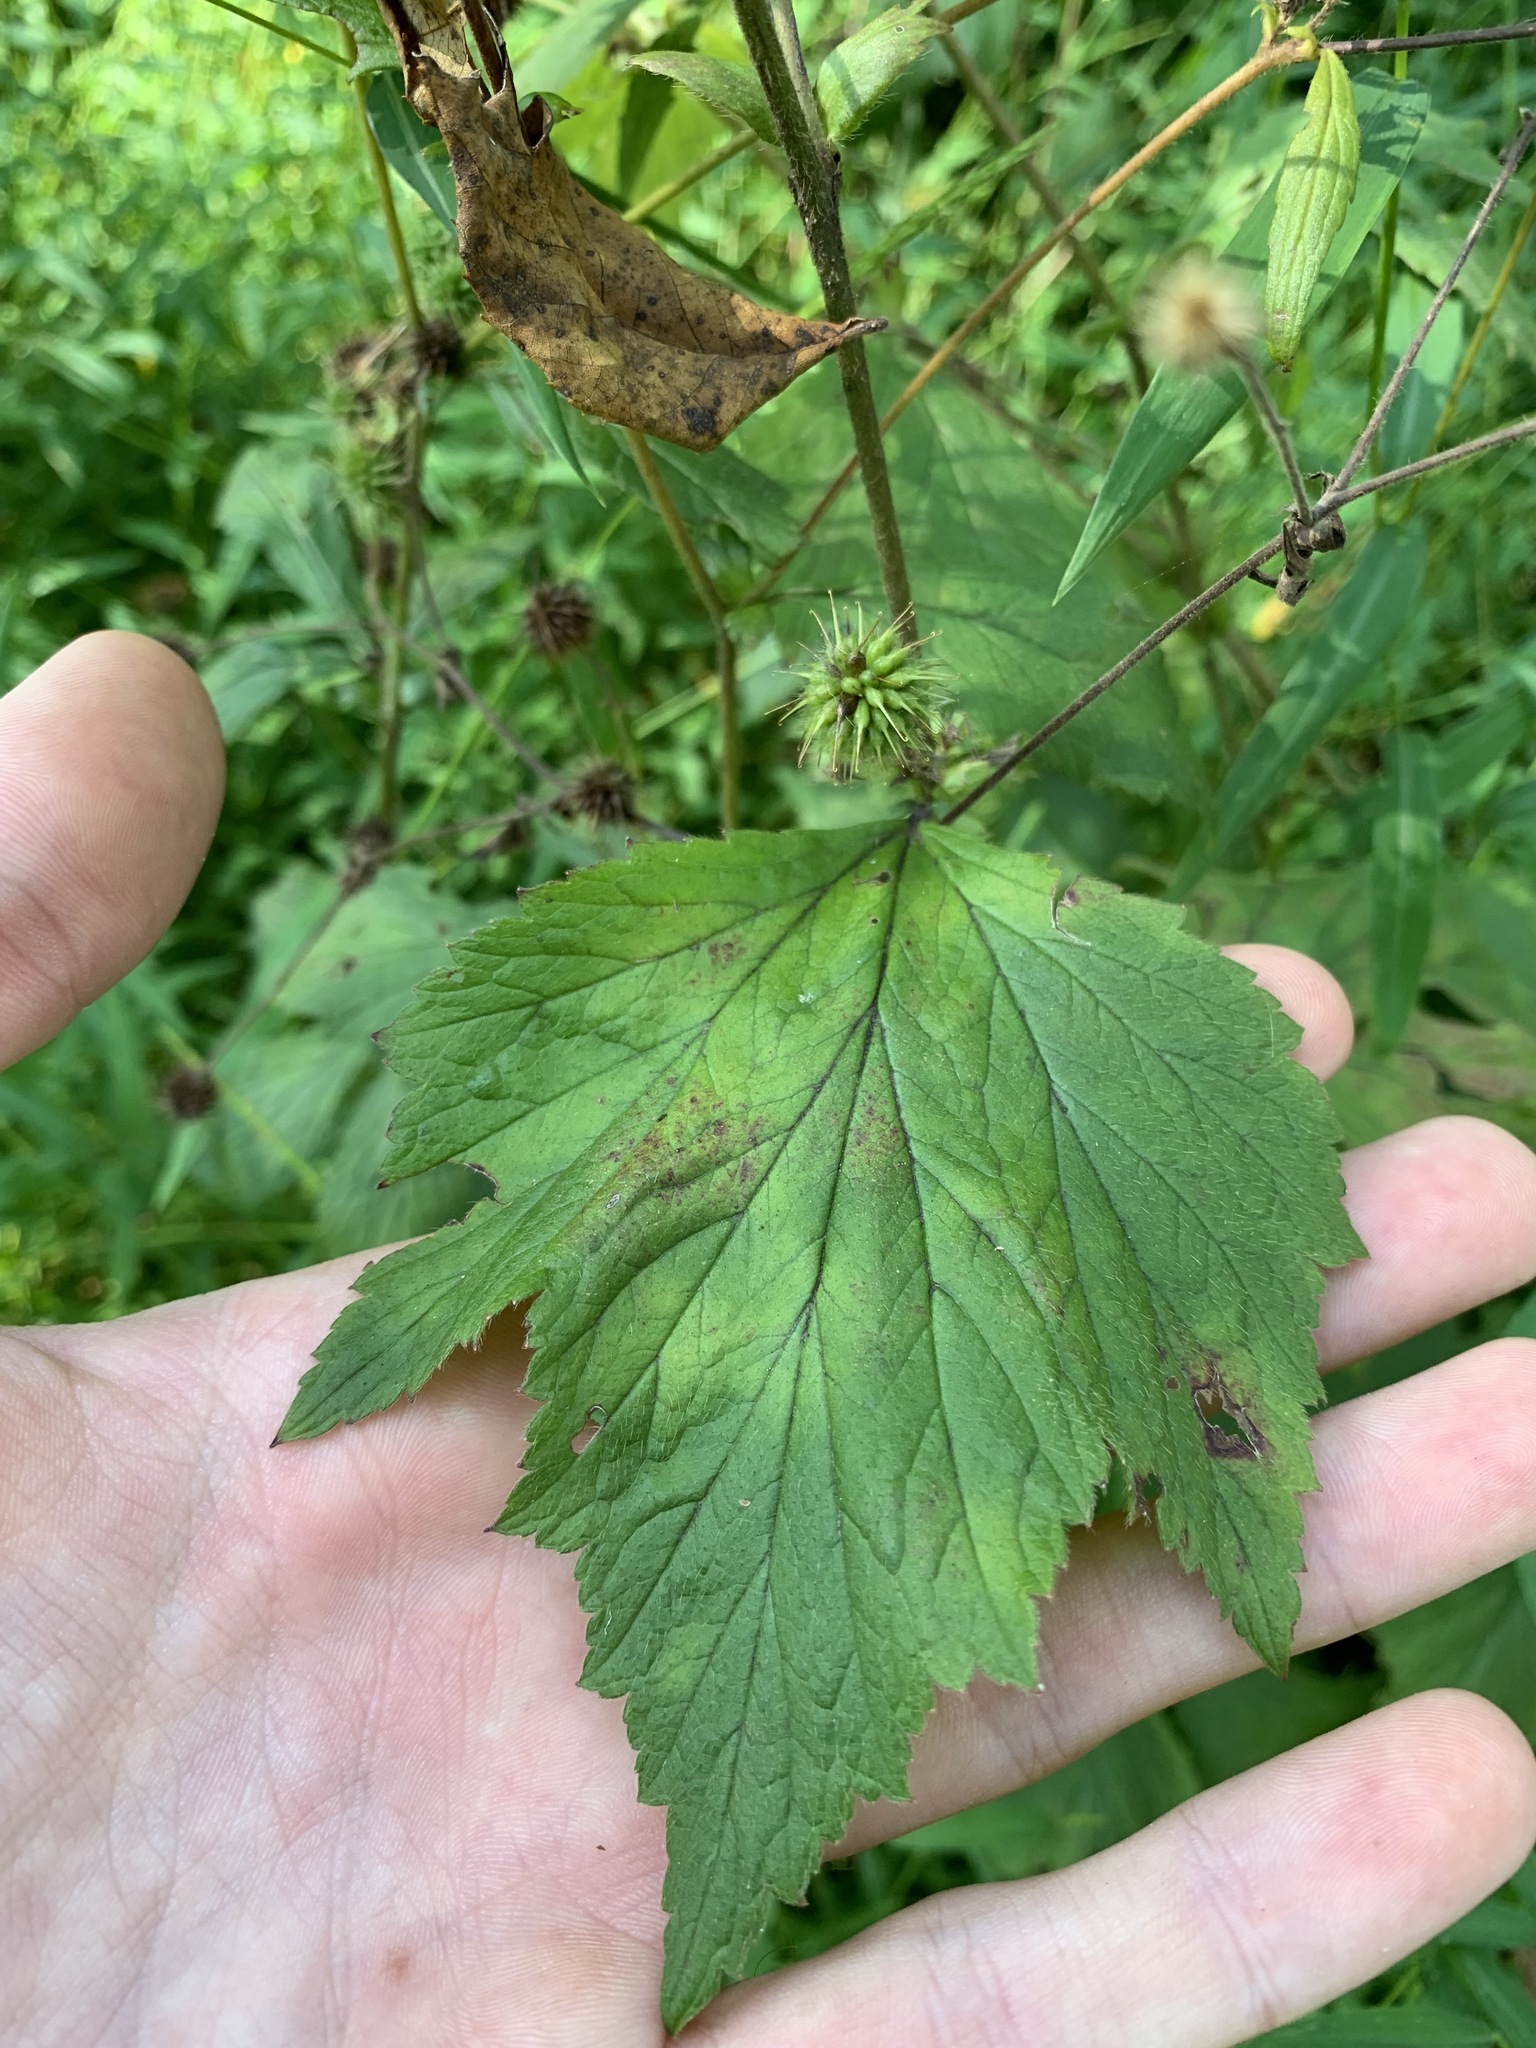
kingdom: Plantae
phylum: Tracheophyta
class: Magnoliopsida
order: Rosales
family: Rosaceae
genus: Geum
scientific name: Geum canadense
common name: White avens
